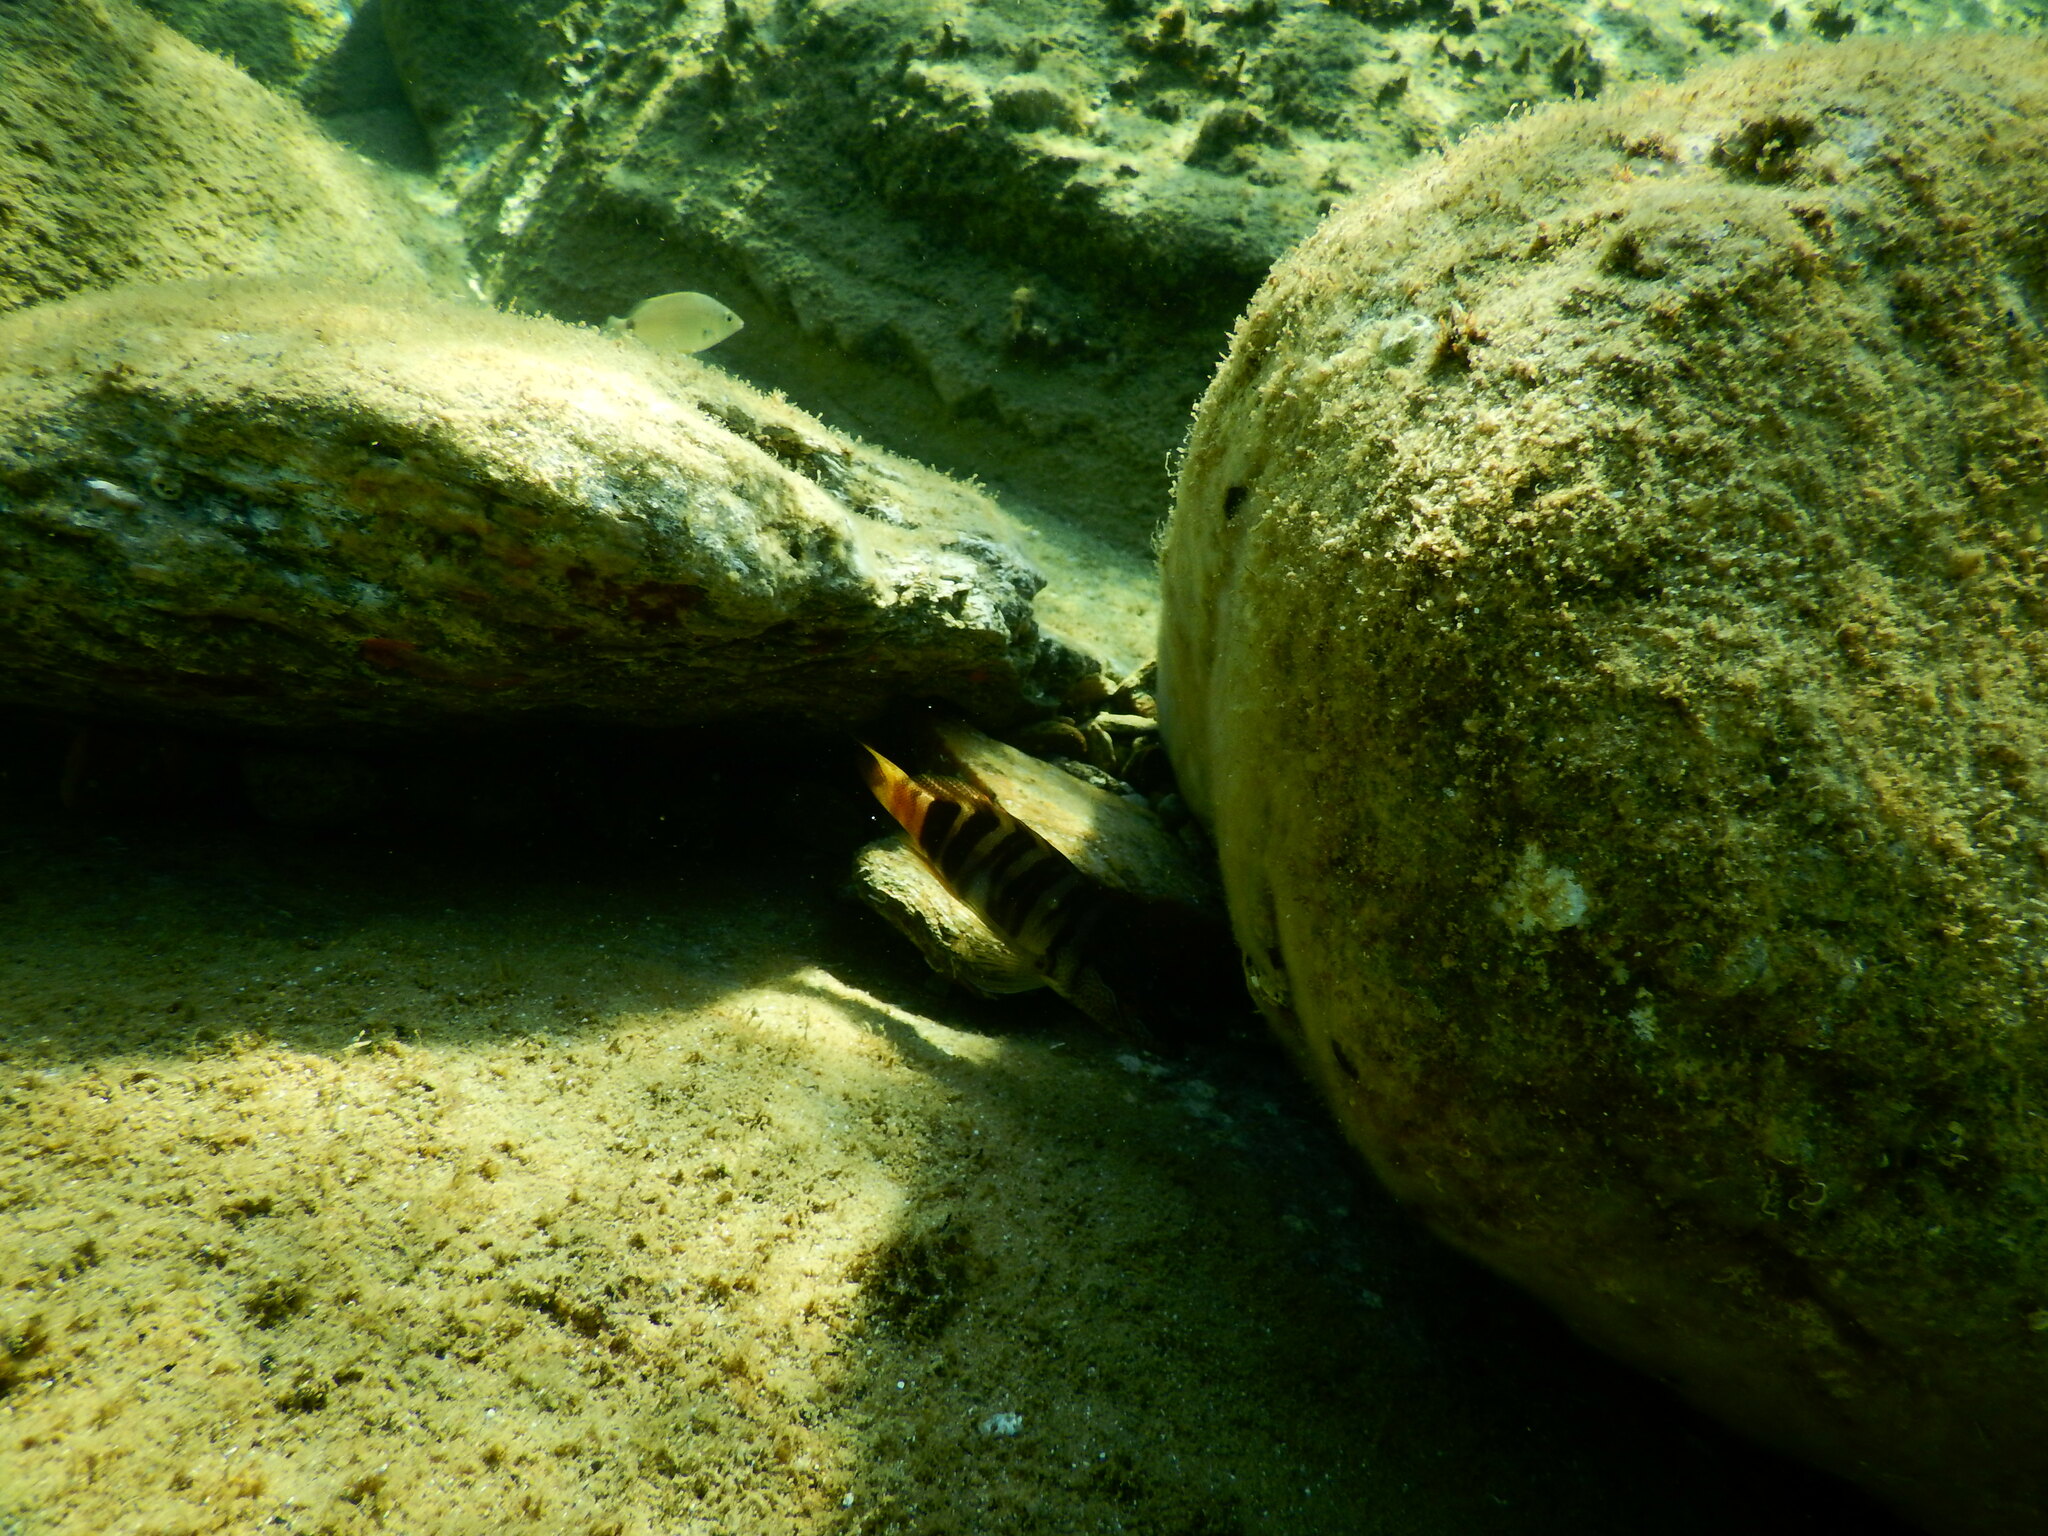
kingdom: Animalia
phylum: Chordata
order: Perciformes
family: Serranidae
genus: Serranus
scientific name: Serranus scriba
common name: Painted comber
